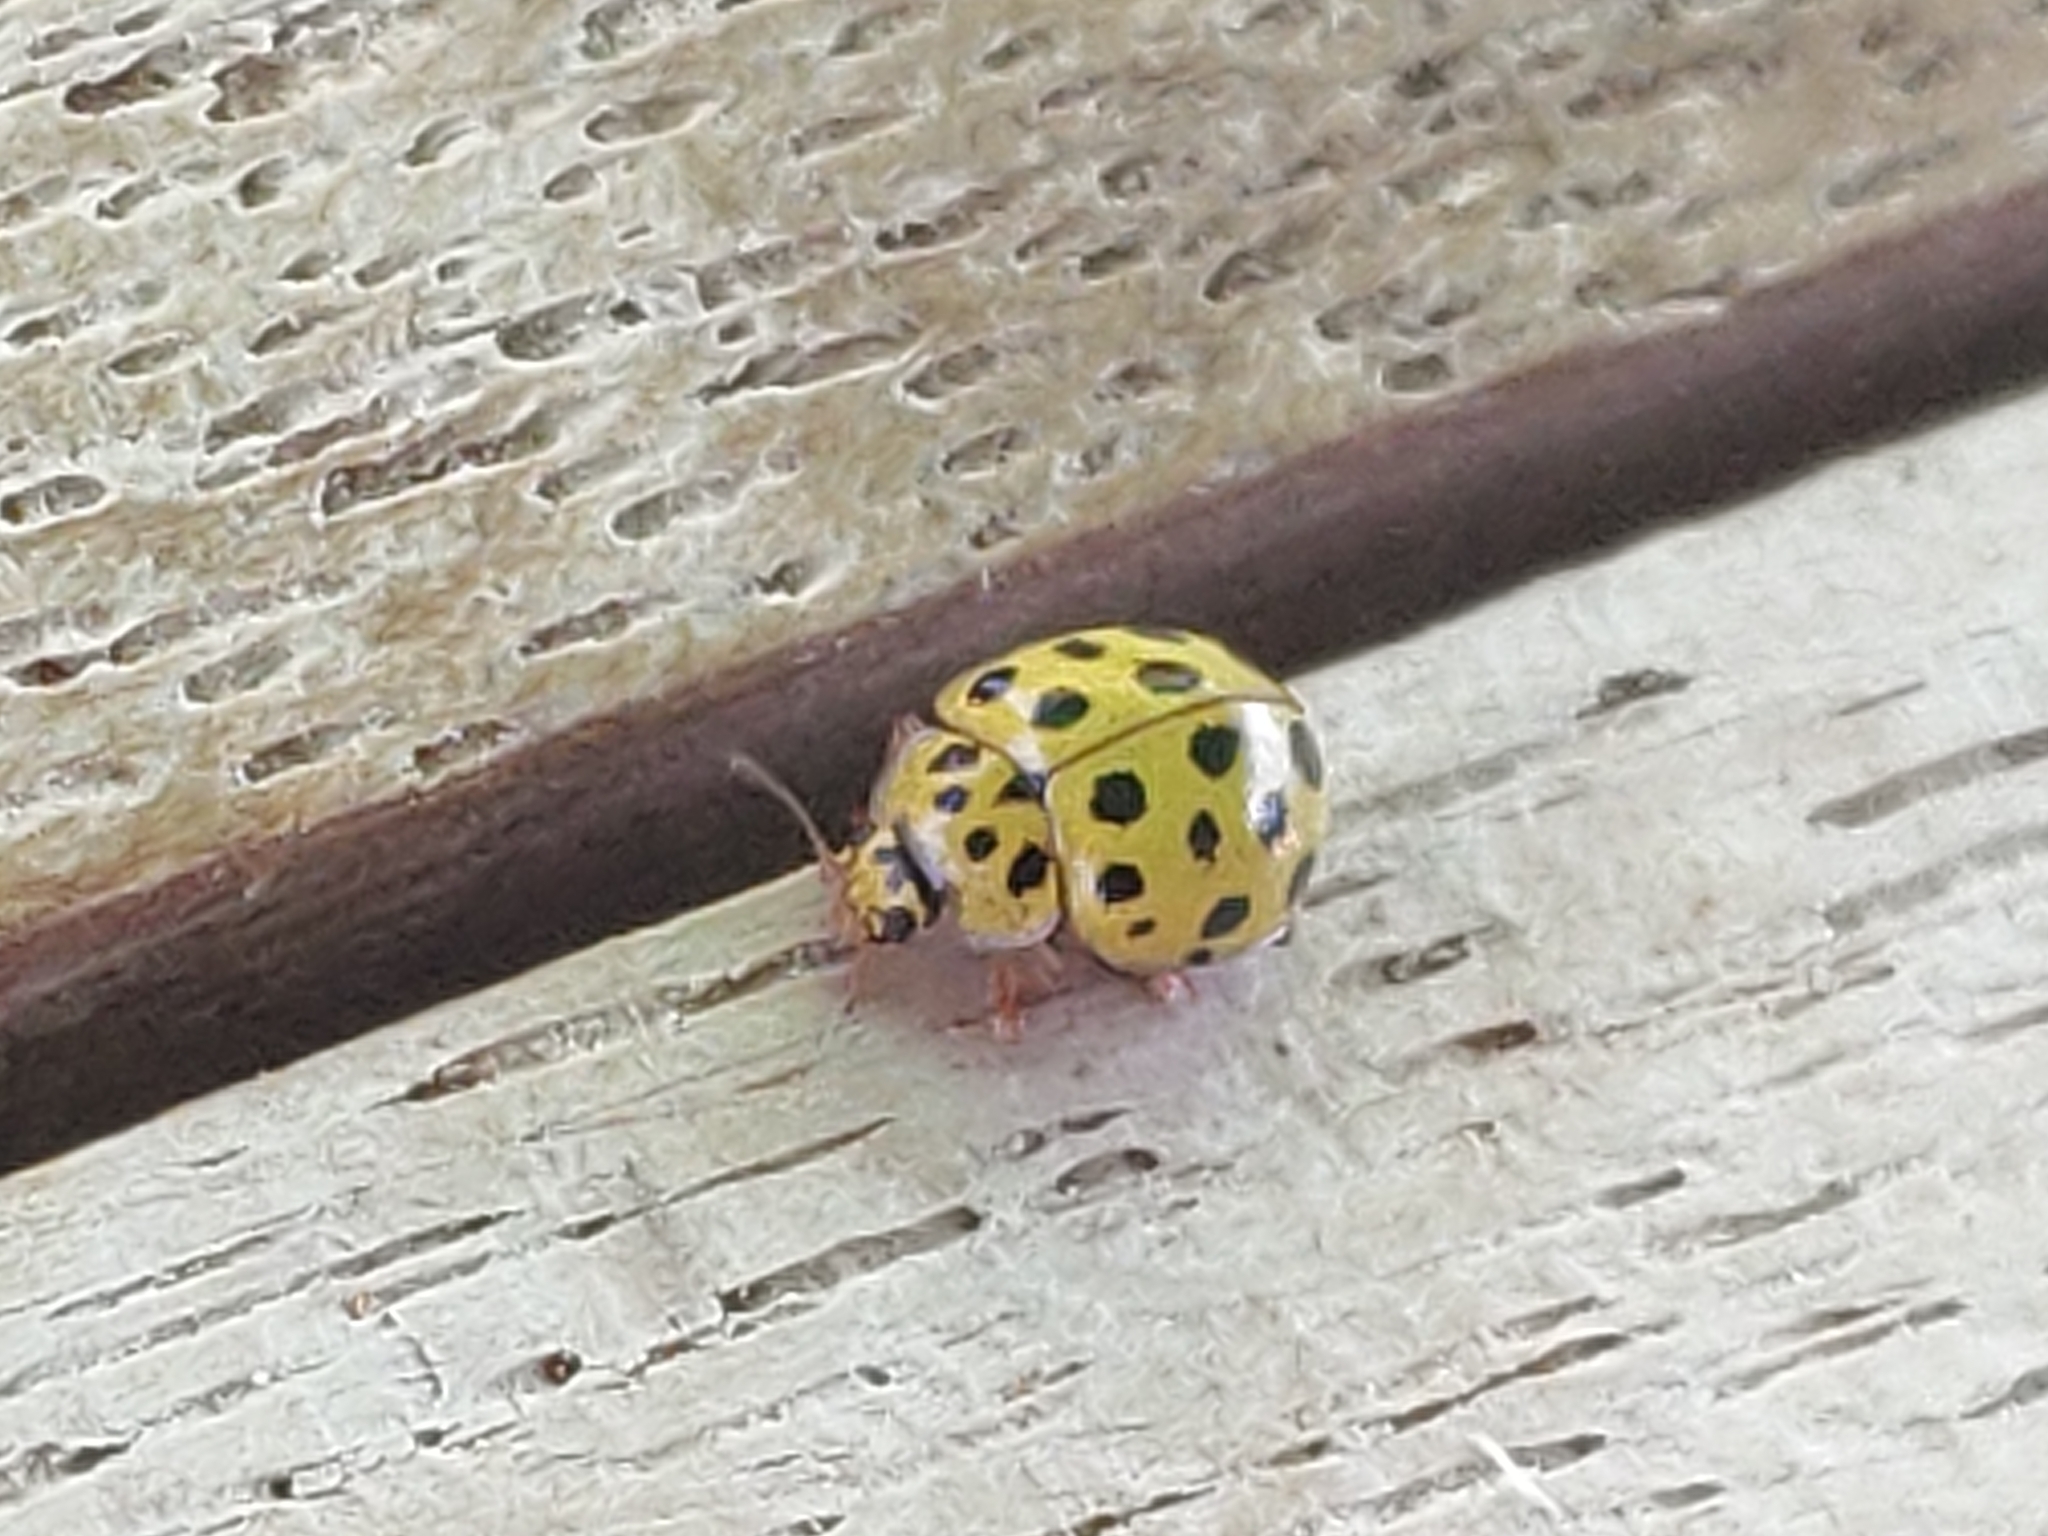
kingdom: Animalia
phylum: Arthropoda
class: Insecta
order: Coleoptera
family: Coccinellidae
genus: Psyllobora
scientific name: Psyllobora vigintiduopunctata
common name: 22-spot ladybird
